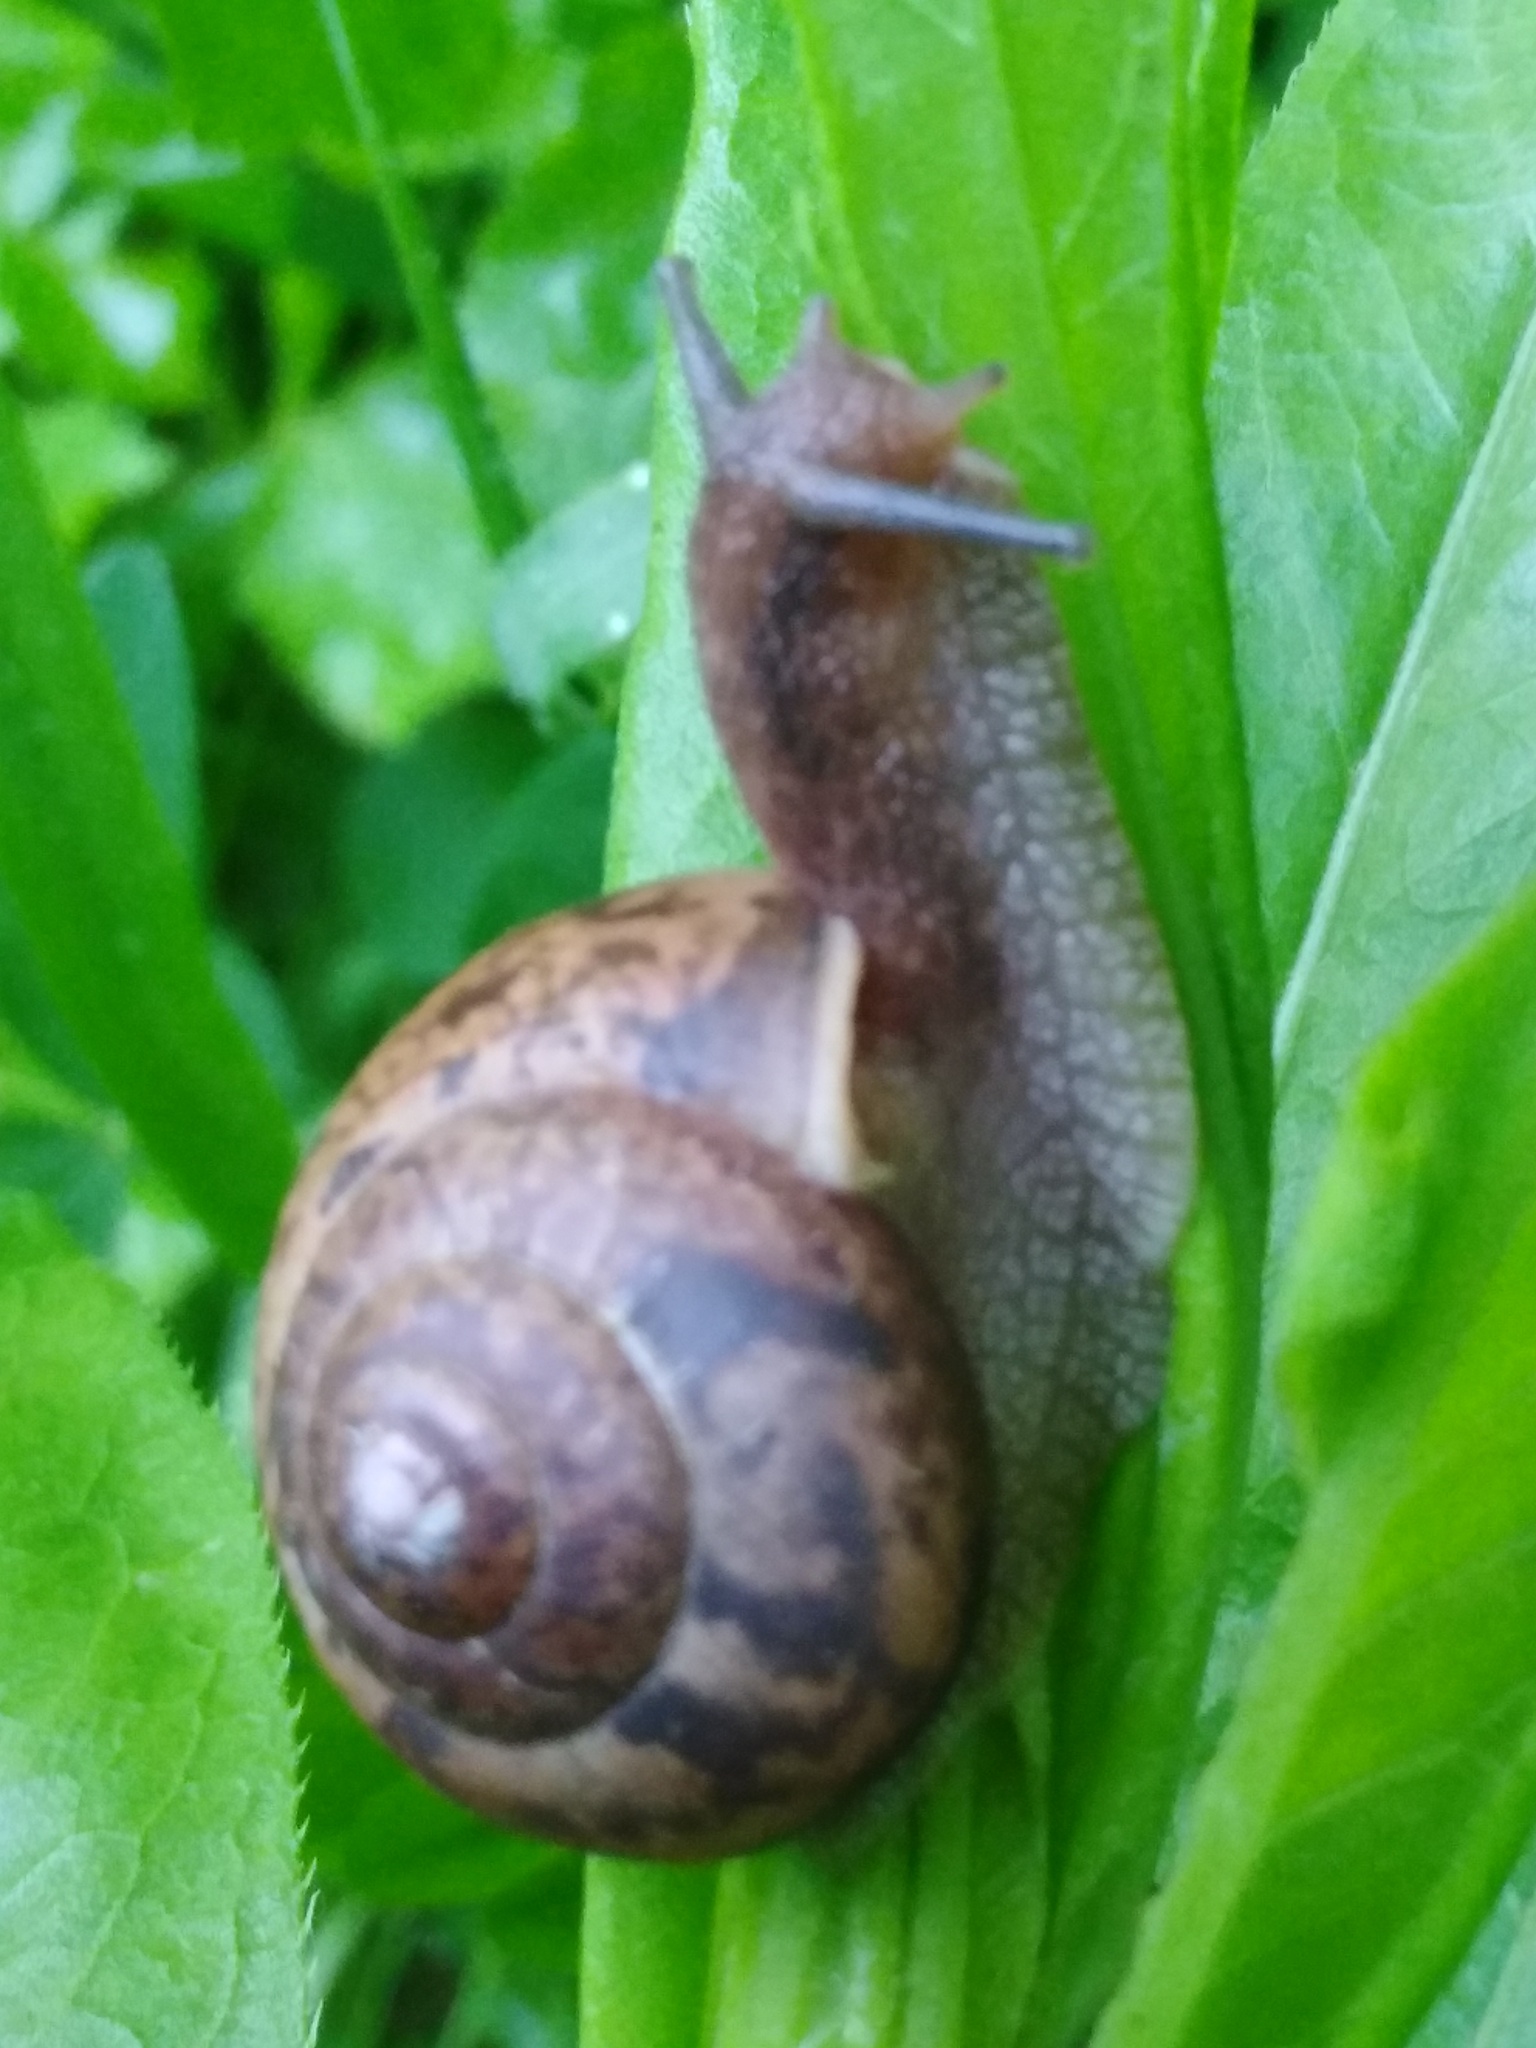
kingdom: Animalia
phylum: Mollusca
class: Gastropoda
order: Stylommatophora
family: Camaenidae
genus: Fruticicola
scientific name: Fruticicola fruticum
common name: Bush snail
